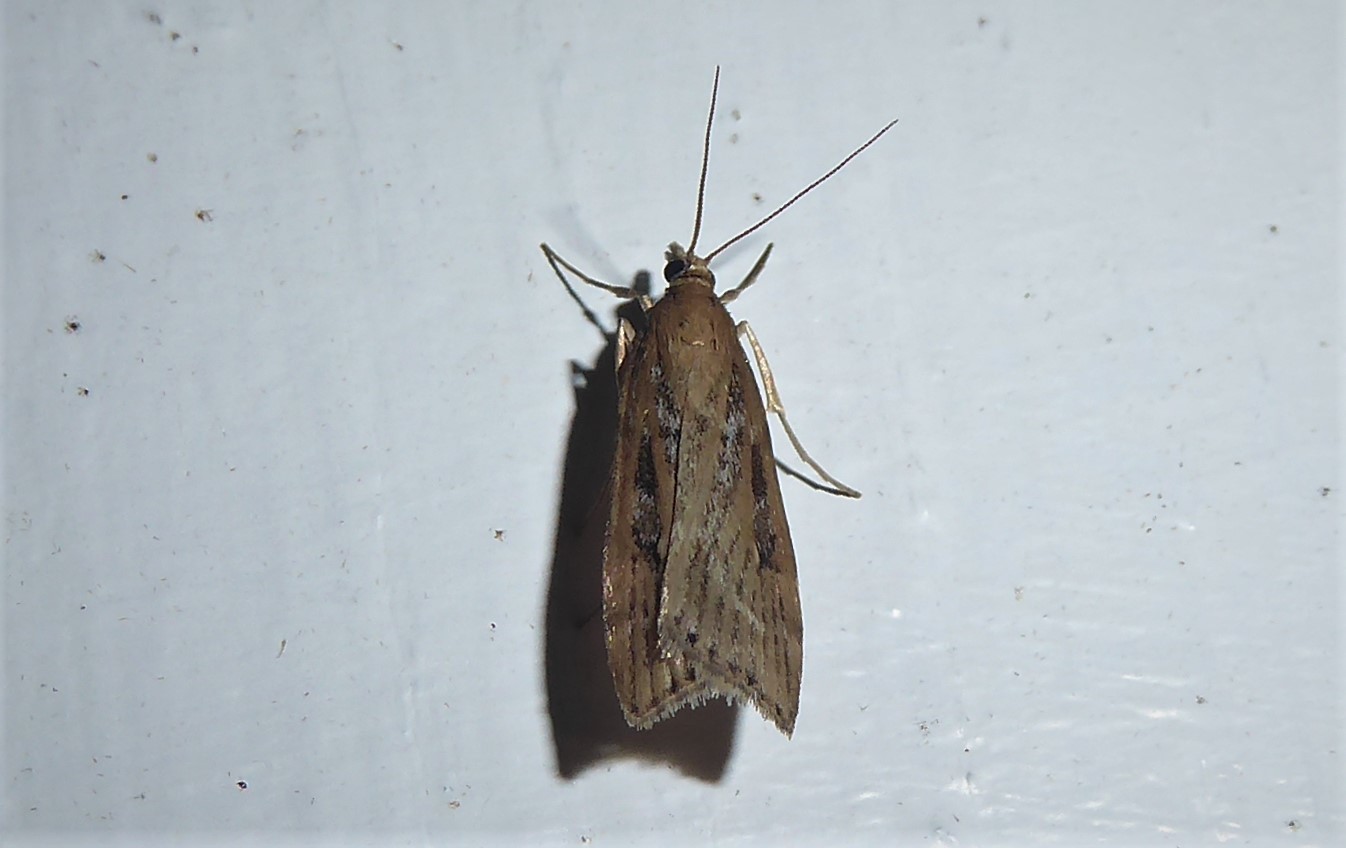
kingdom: Animalia
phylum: Arthropoda
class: Insecta
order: Lepidoptera
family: Crambidae
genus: Eudonia
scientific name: Eudonia octophora
